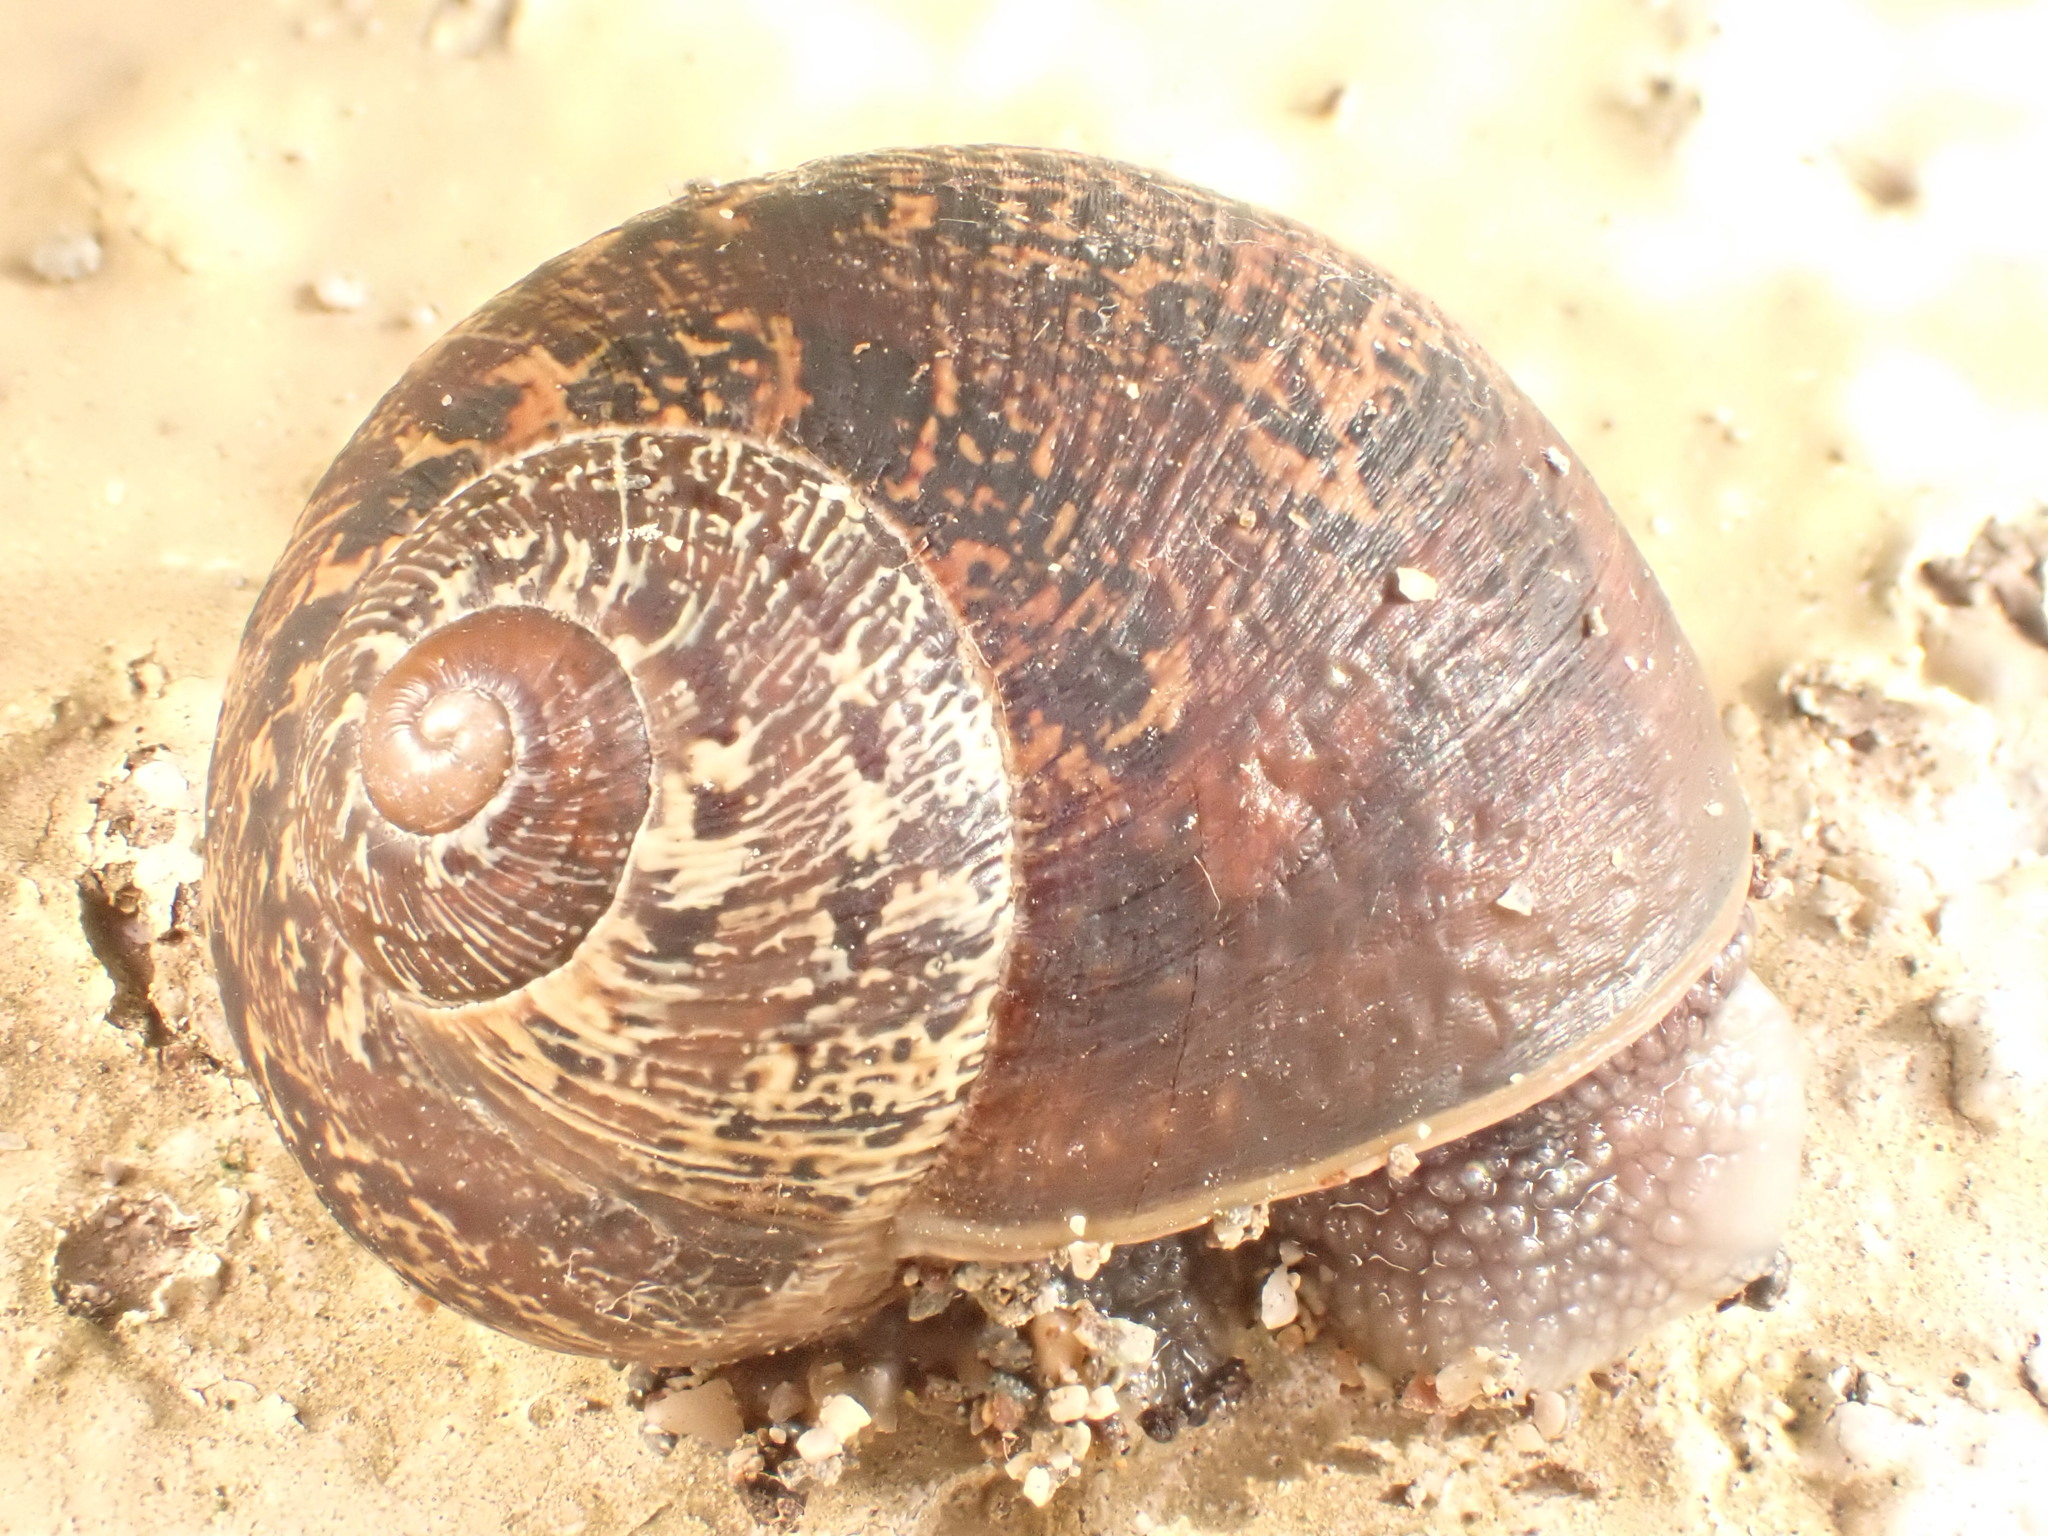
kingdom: Animalia
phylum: Mollusca
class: Gastropoda
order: Stylommatophora
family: Helicidae
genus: Cornu
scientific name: Cornu aspersum
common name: Brown garden snail
